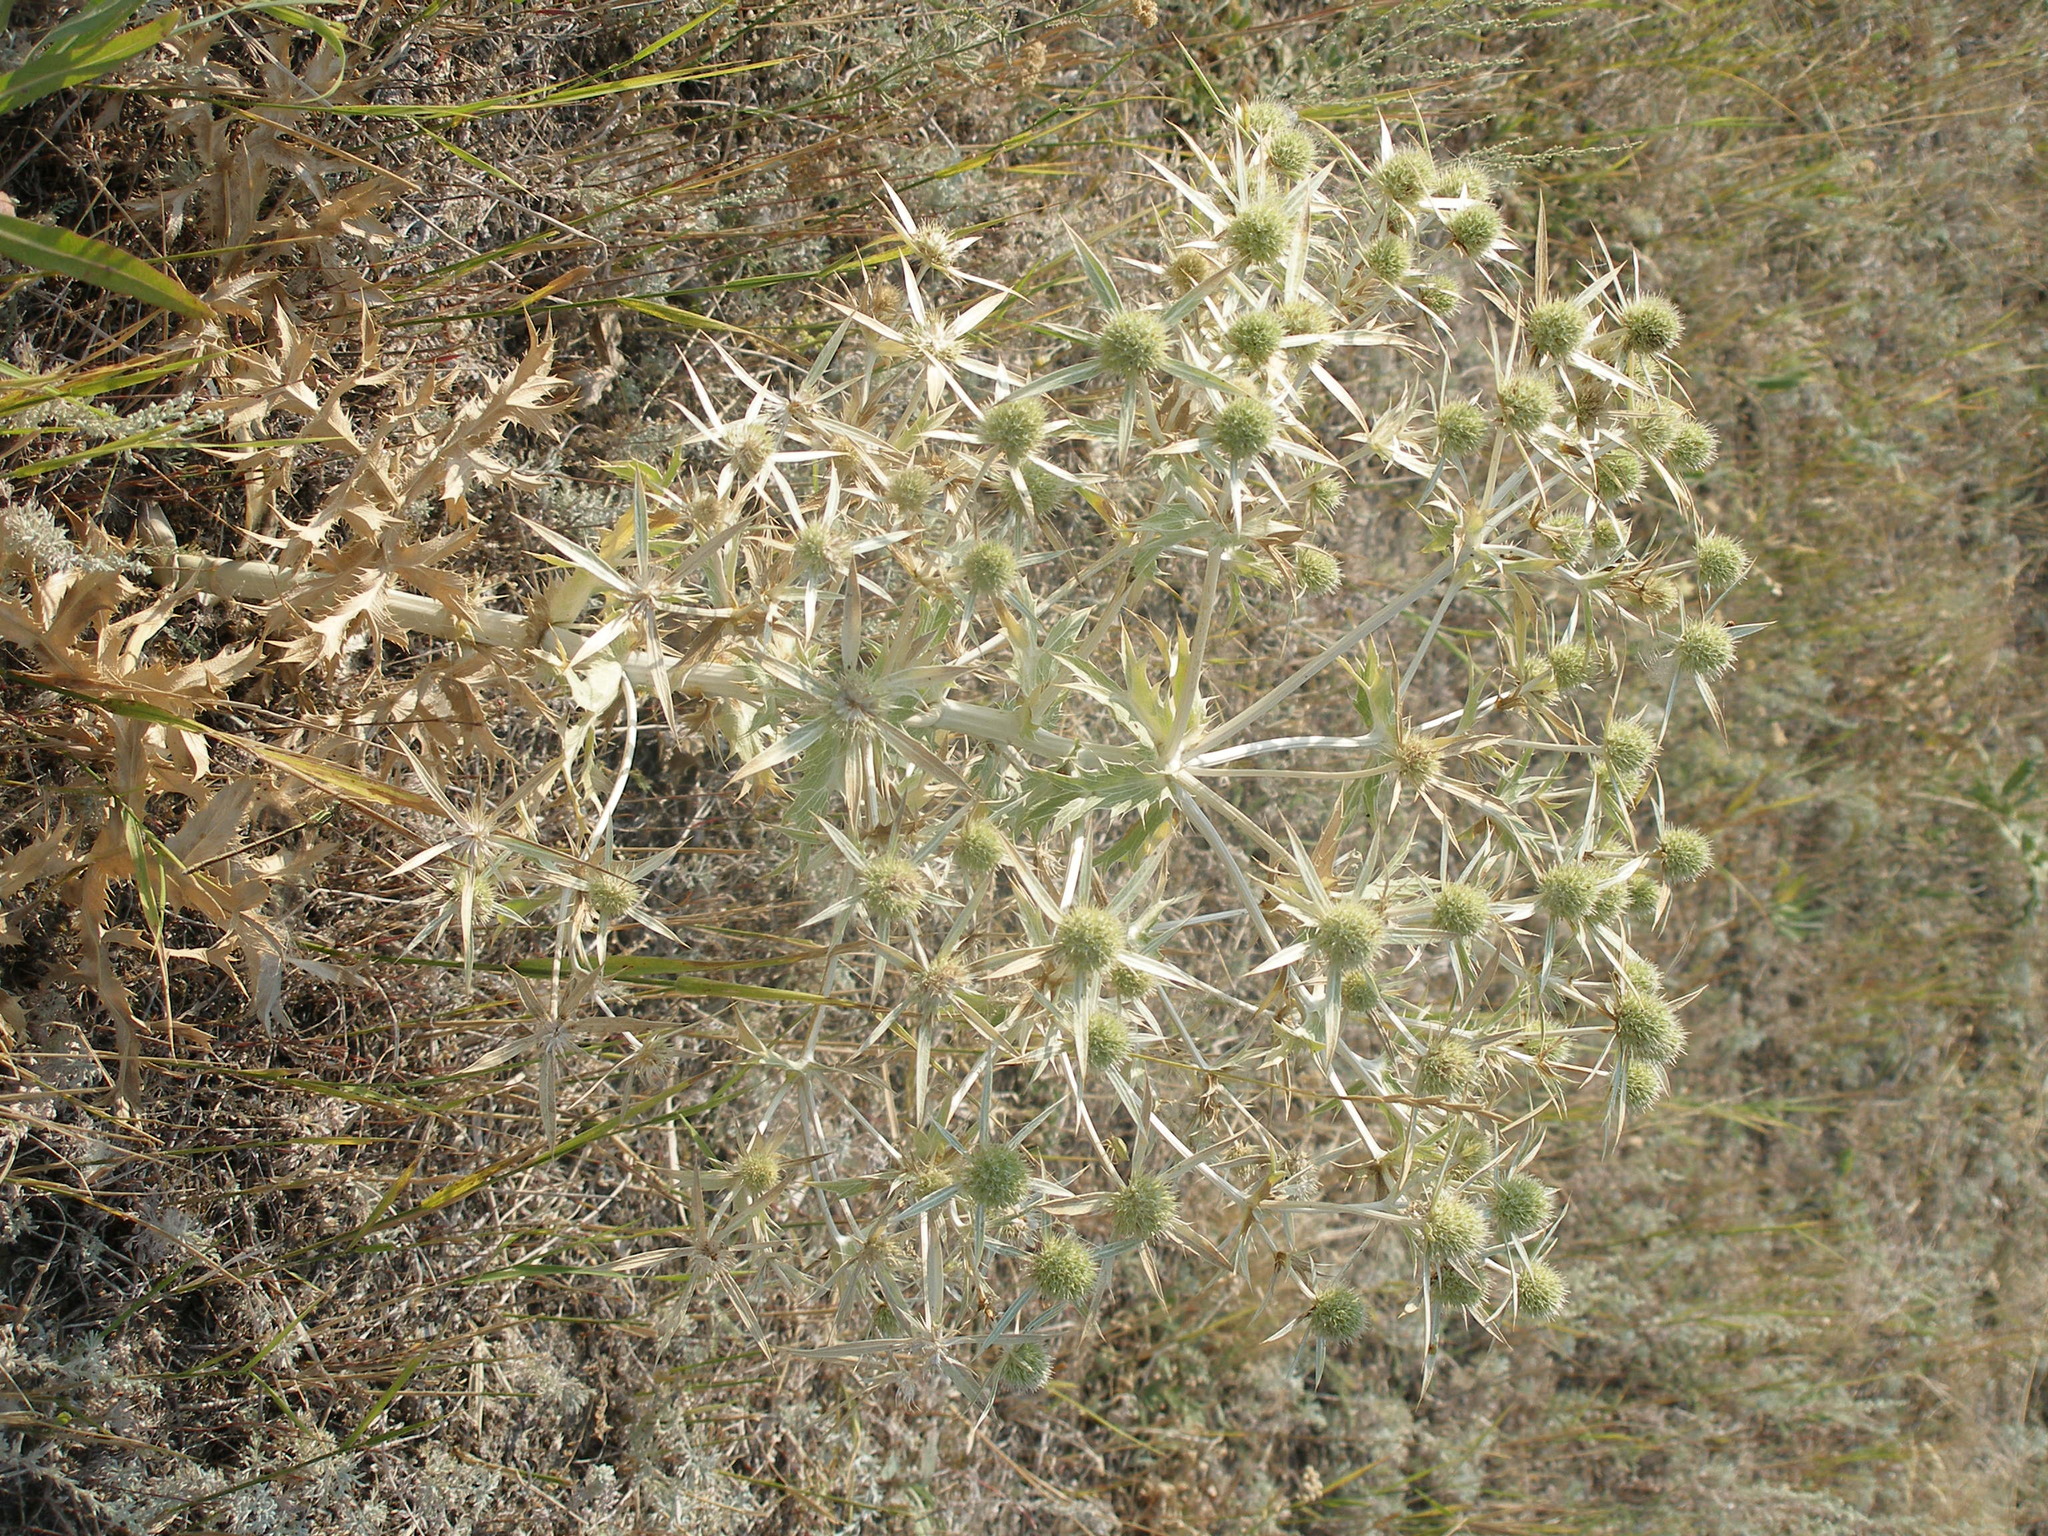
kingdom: Plantae
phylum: Tracheophyta
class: Magnoliopsida
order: Apiales
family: Apiaceae
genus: Eryngium
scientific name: Eryngium campestre
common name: Field eryngo
